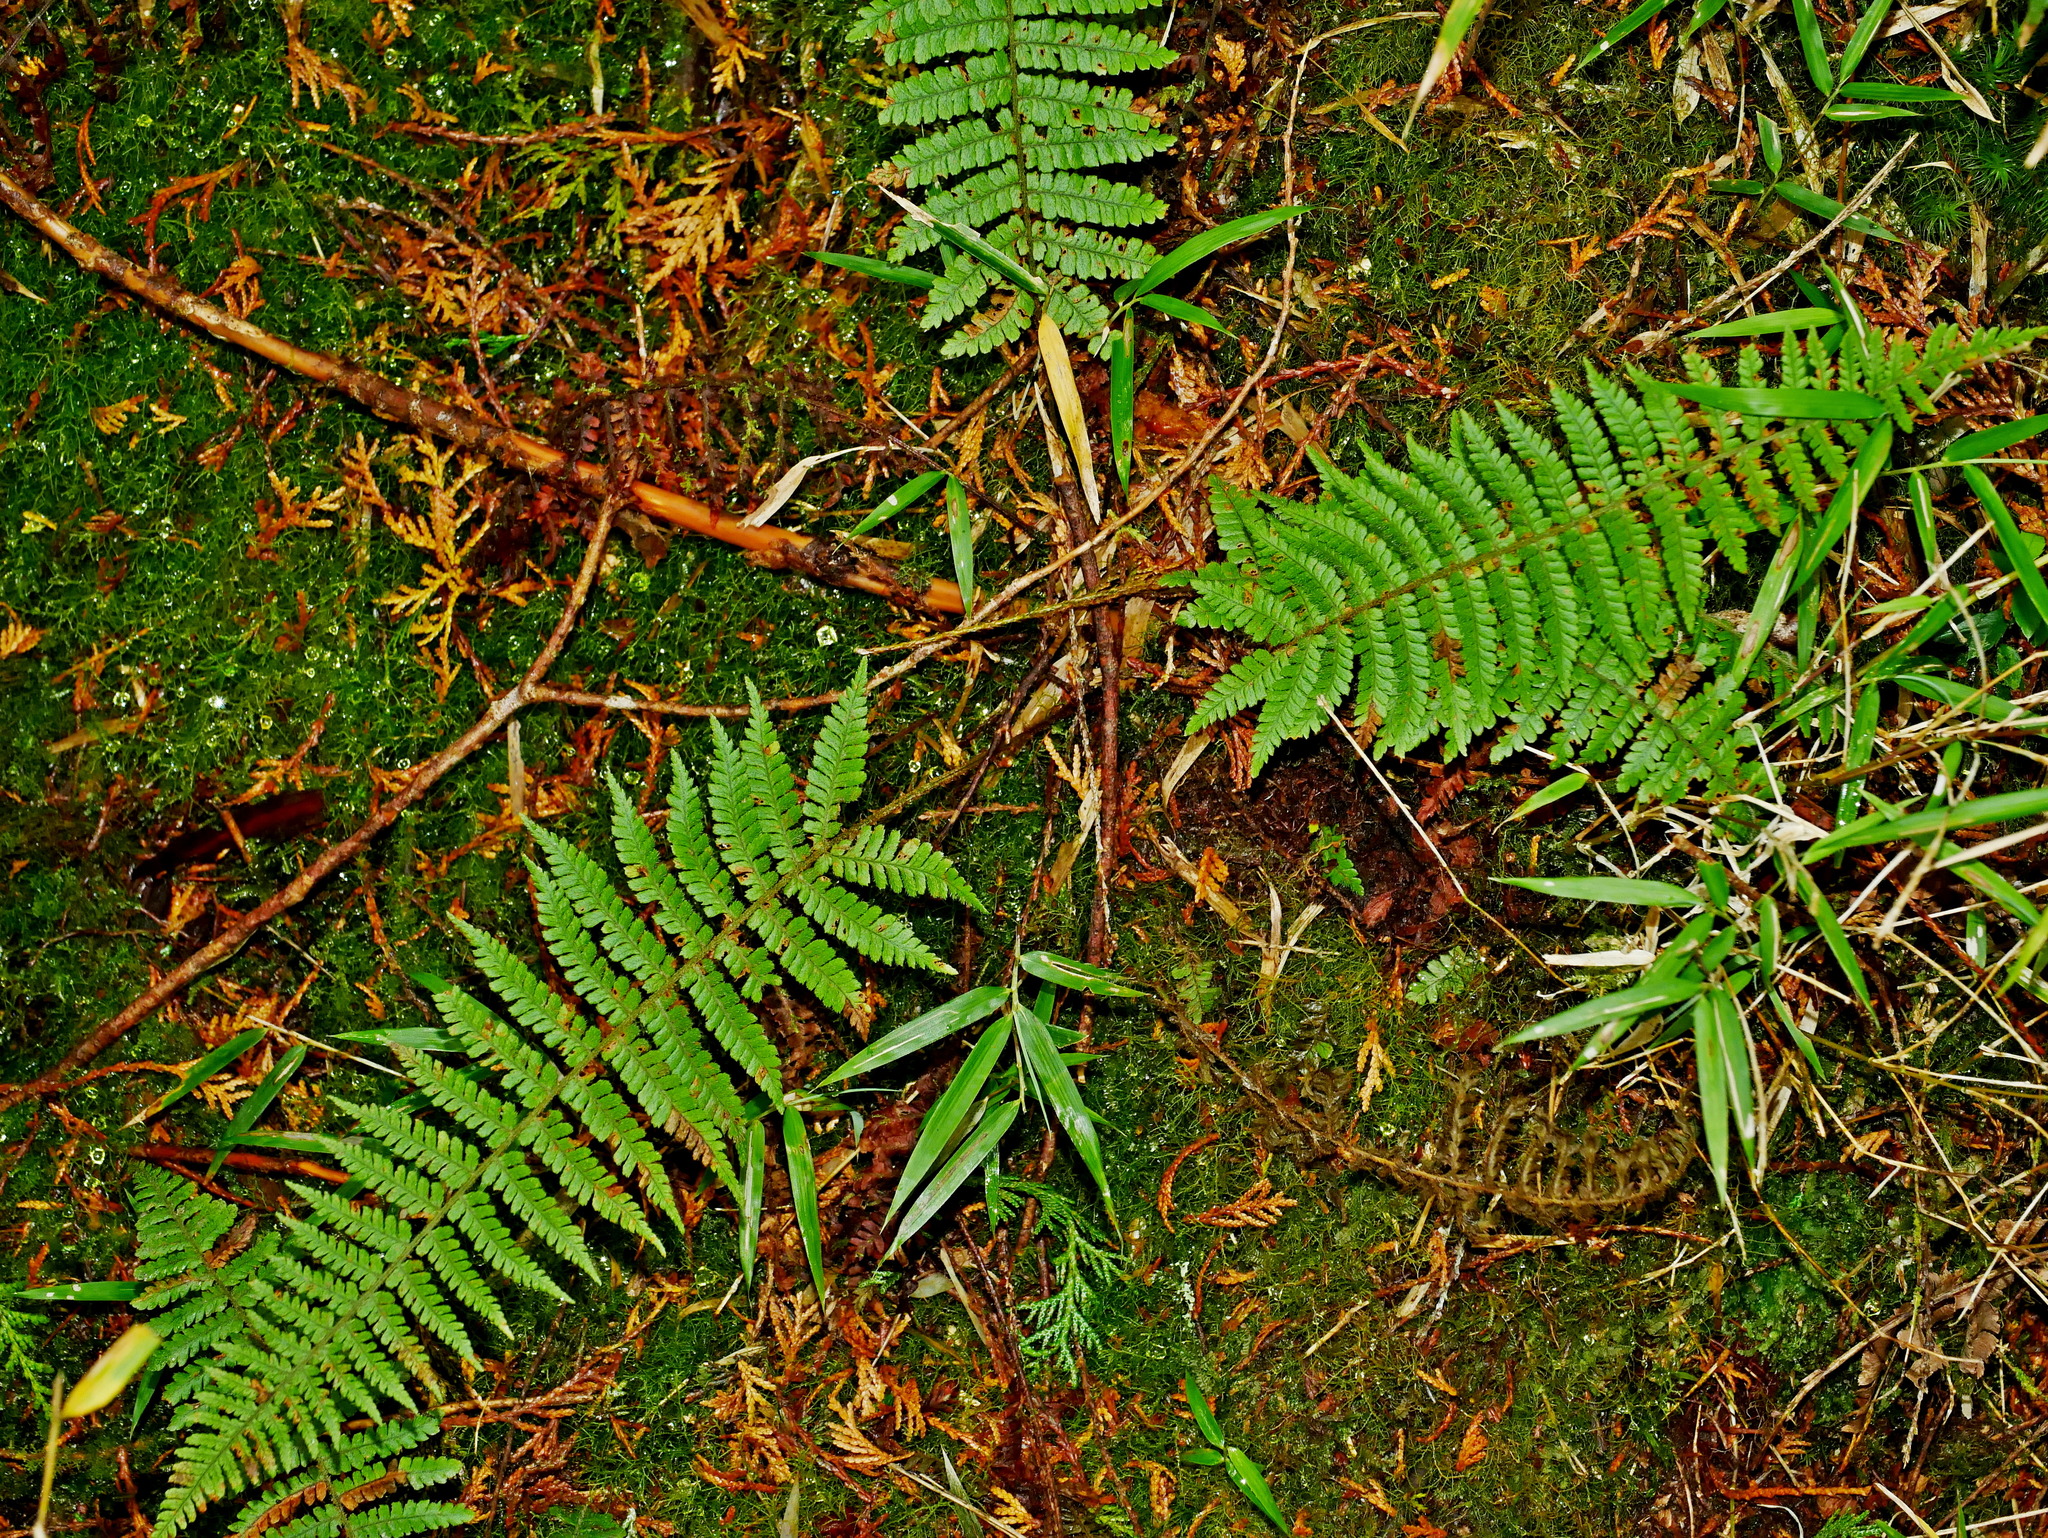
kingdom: Plantae
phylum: Tracheophyta
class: Polypodiopsida
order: Polypodiales
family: Dryopteridaceae
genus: Dryopteris
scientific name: Dryopteris kawakamii
